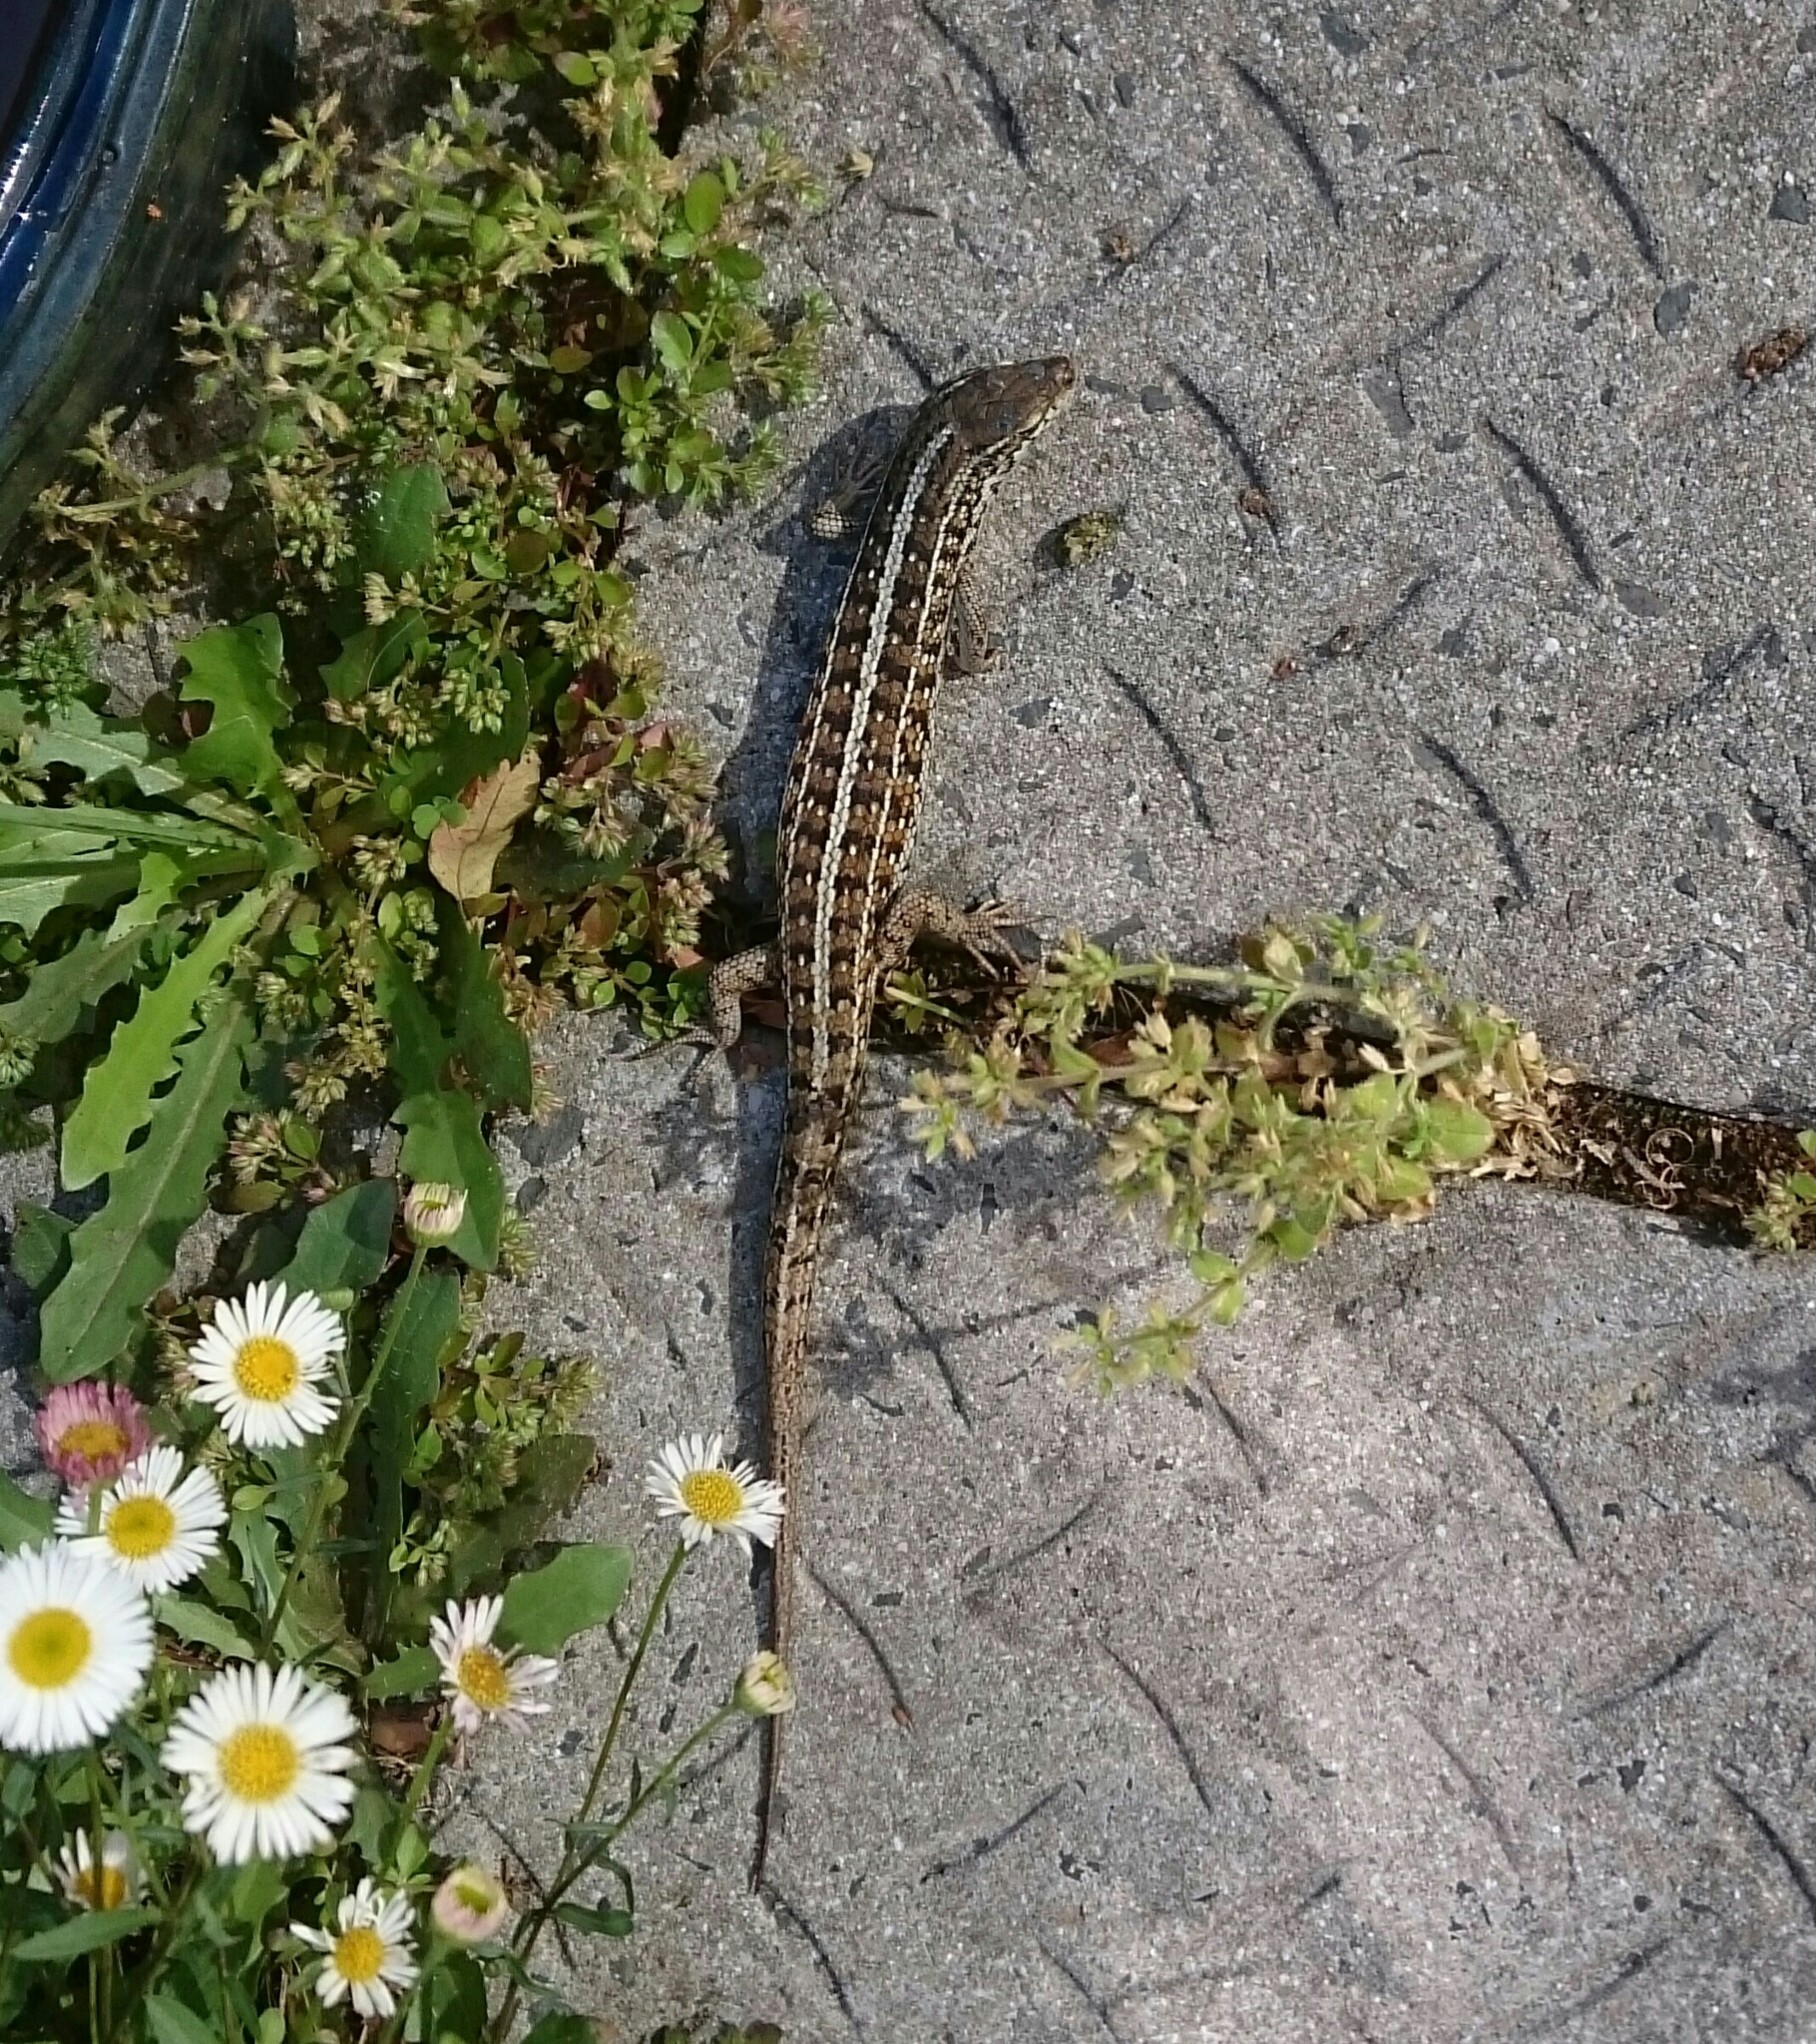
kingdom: Animalia
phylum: Chordata
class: Squamata
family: Scincidae
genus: Trachylepis
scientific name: Trachylepis capensis
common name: Cape skink
